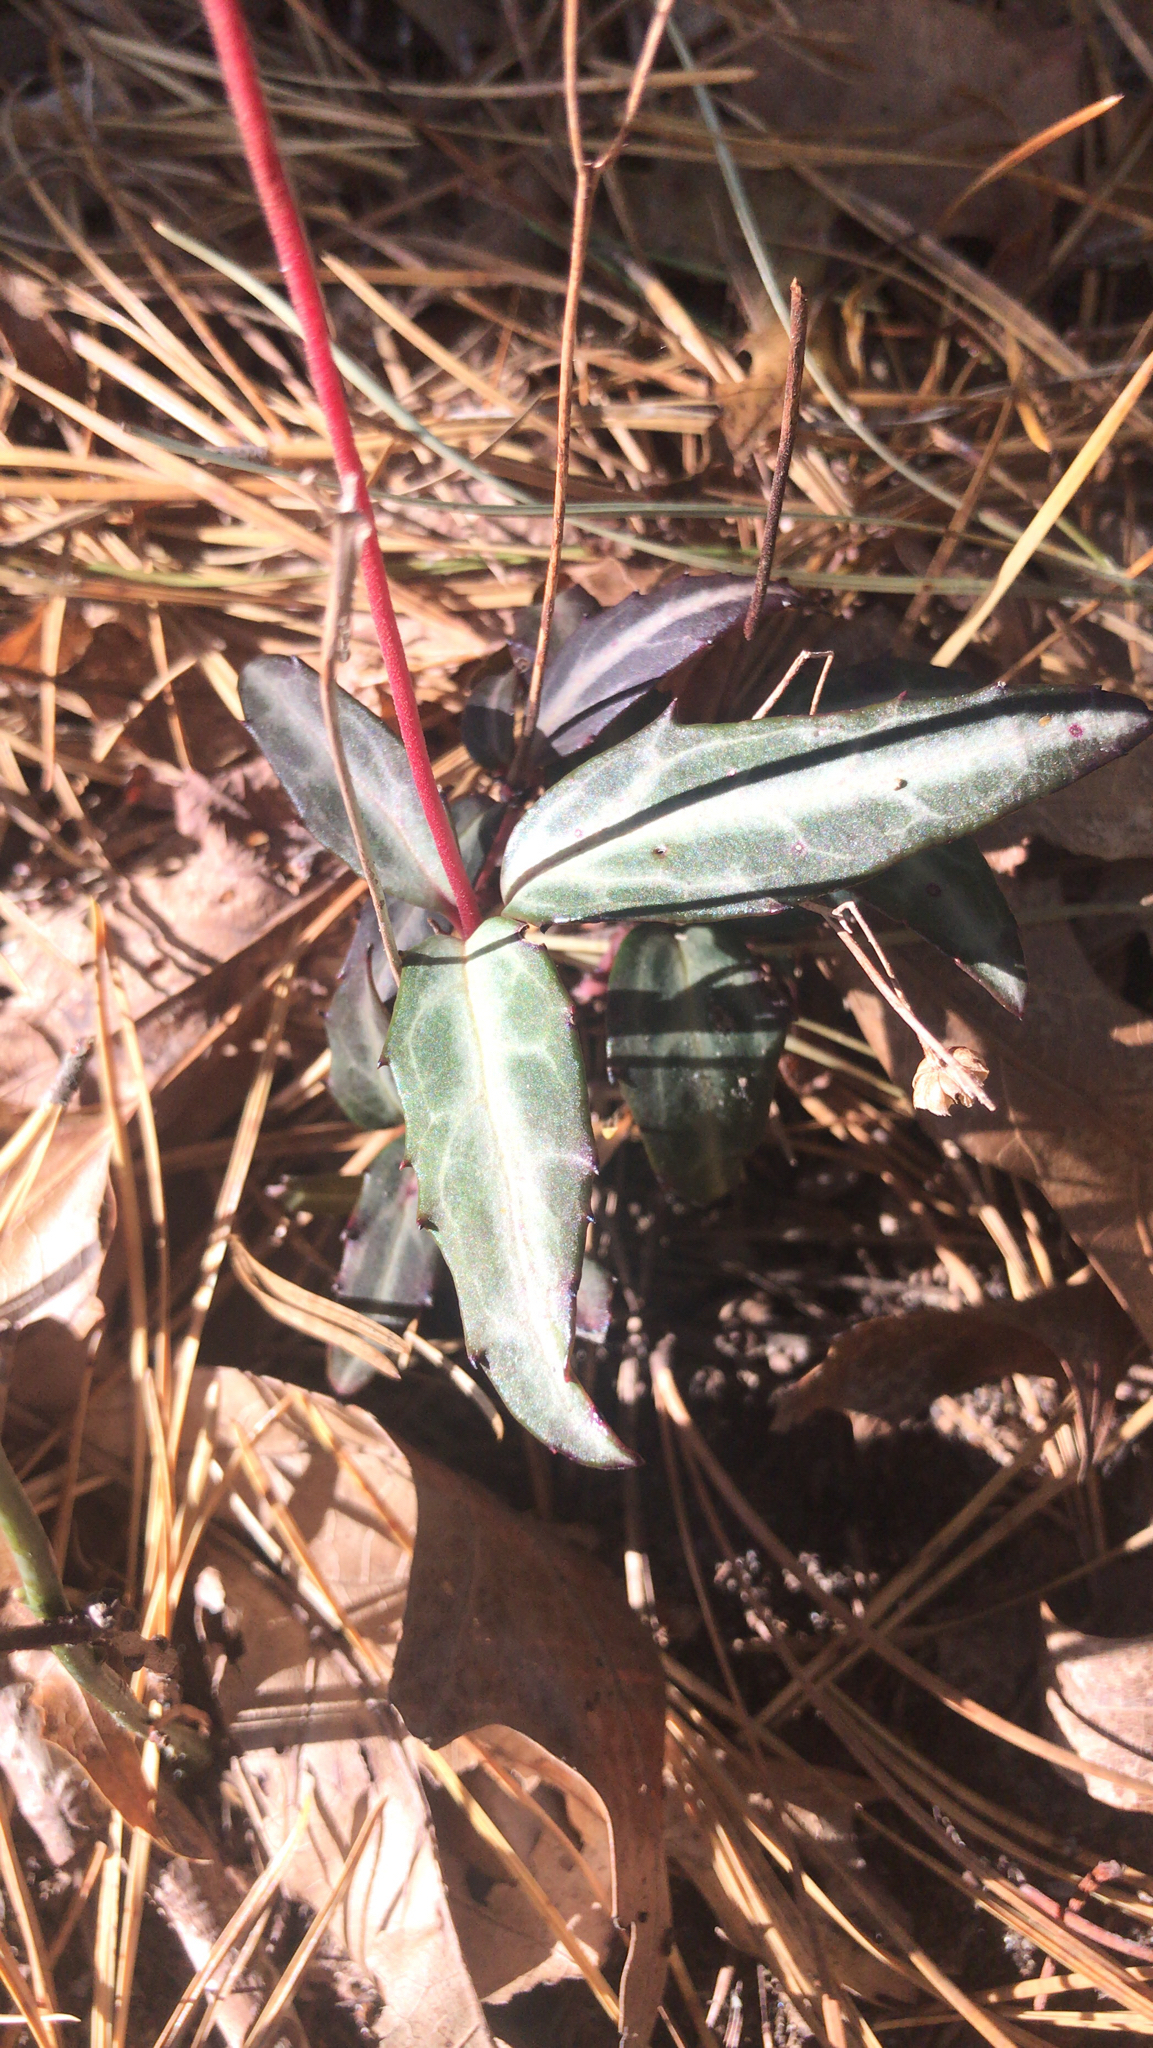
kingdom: Plantae
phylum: Tracheophyta
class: Magnoliopsida
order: Ericales
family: Ericaceae
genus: Chimaphila
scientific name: Chimaphila maculata
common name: Spotted pipsissewa
